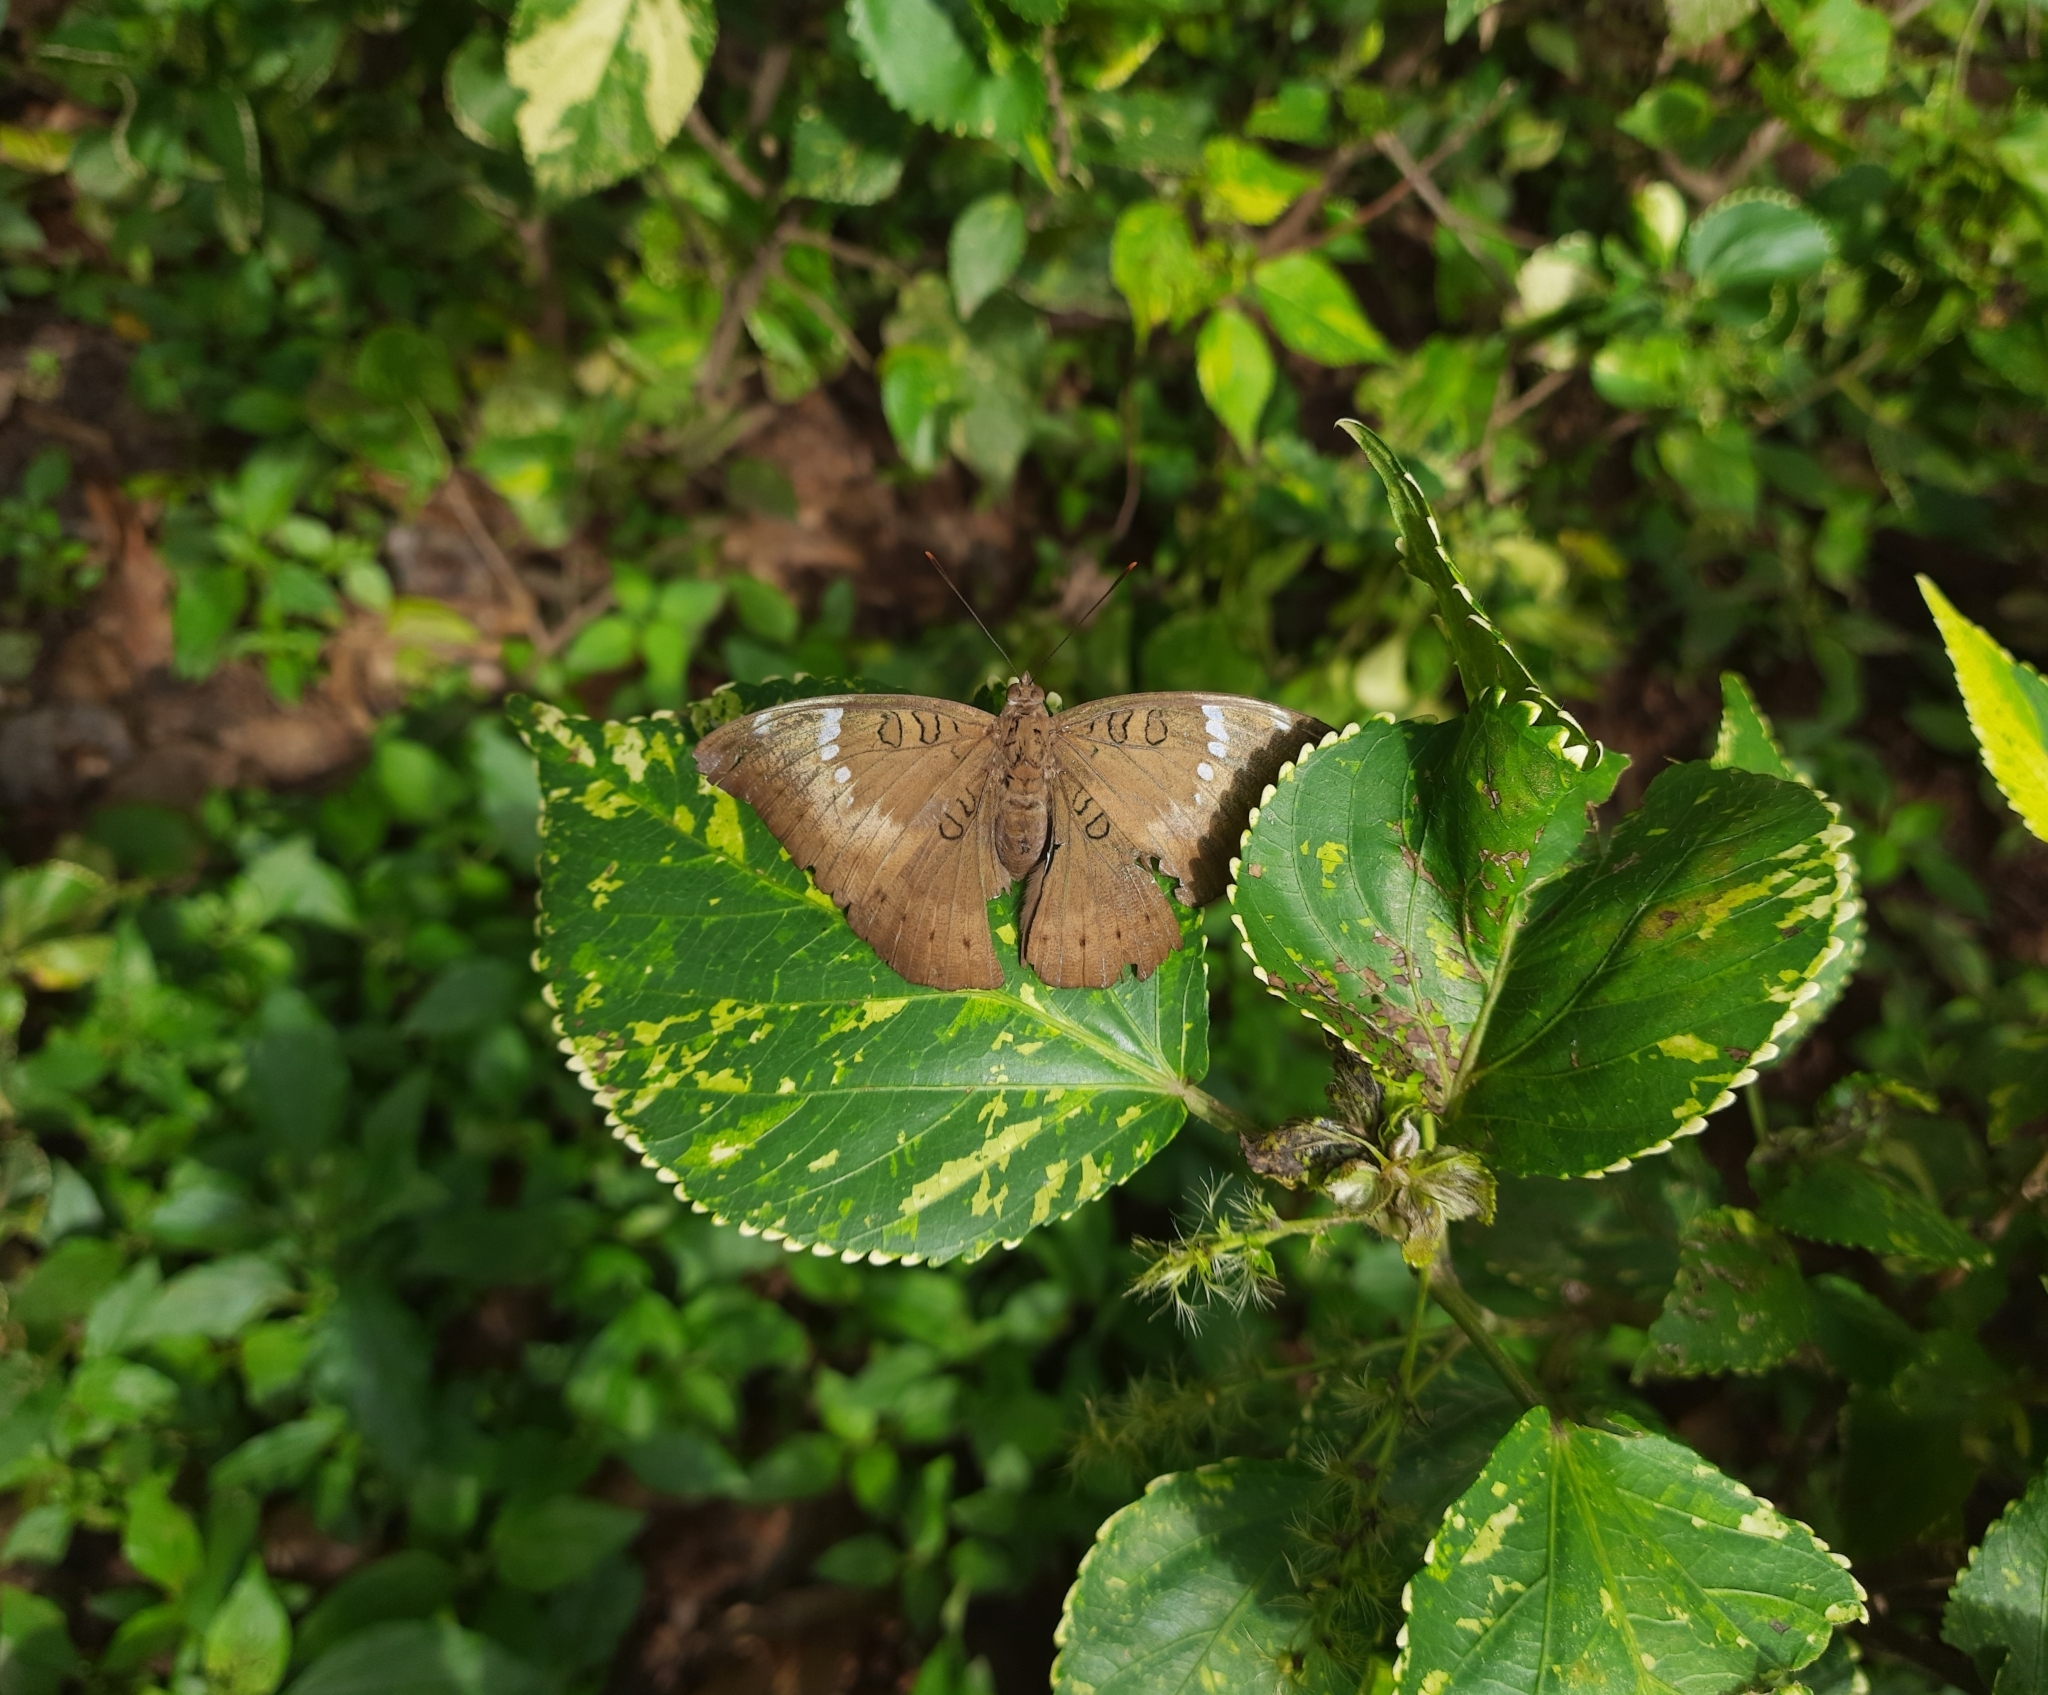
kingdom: Animalia
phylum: Arthropoda
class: Insecta
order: Lepidoptera
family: Nymphalidae
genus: Euthalia
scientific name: Euthalia aconthea
